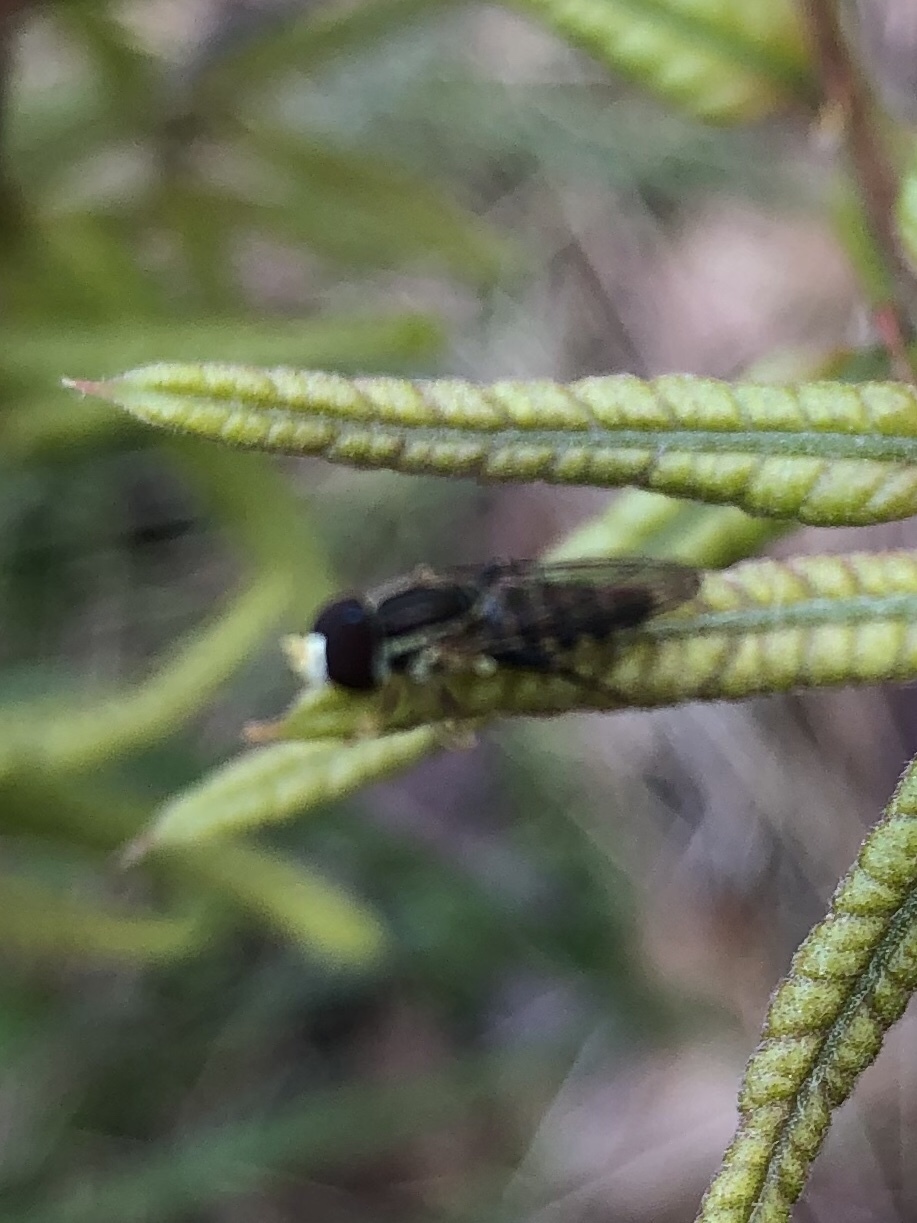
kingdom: Animalia
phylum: Arthropoda
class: Insecta
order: Diptera
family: Syrphidae
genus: Toxomerus
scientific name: Toxomerus geminatus
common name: Eastern calligrapher
